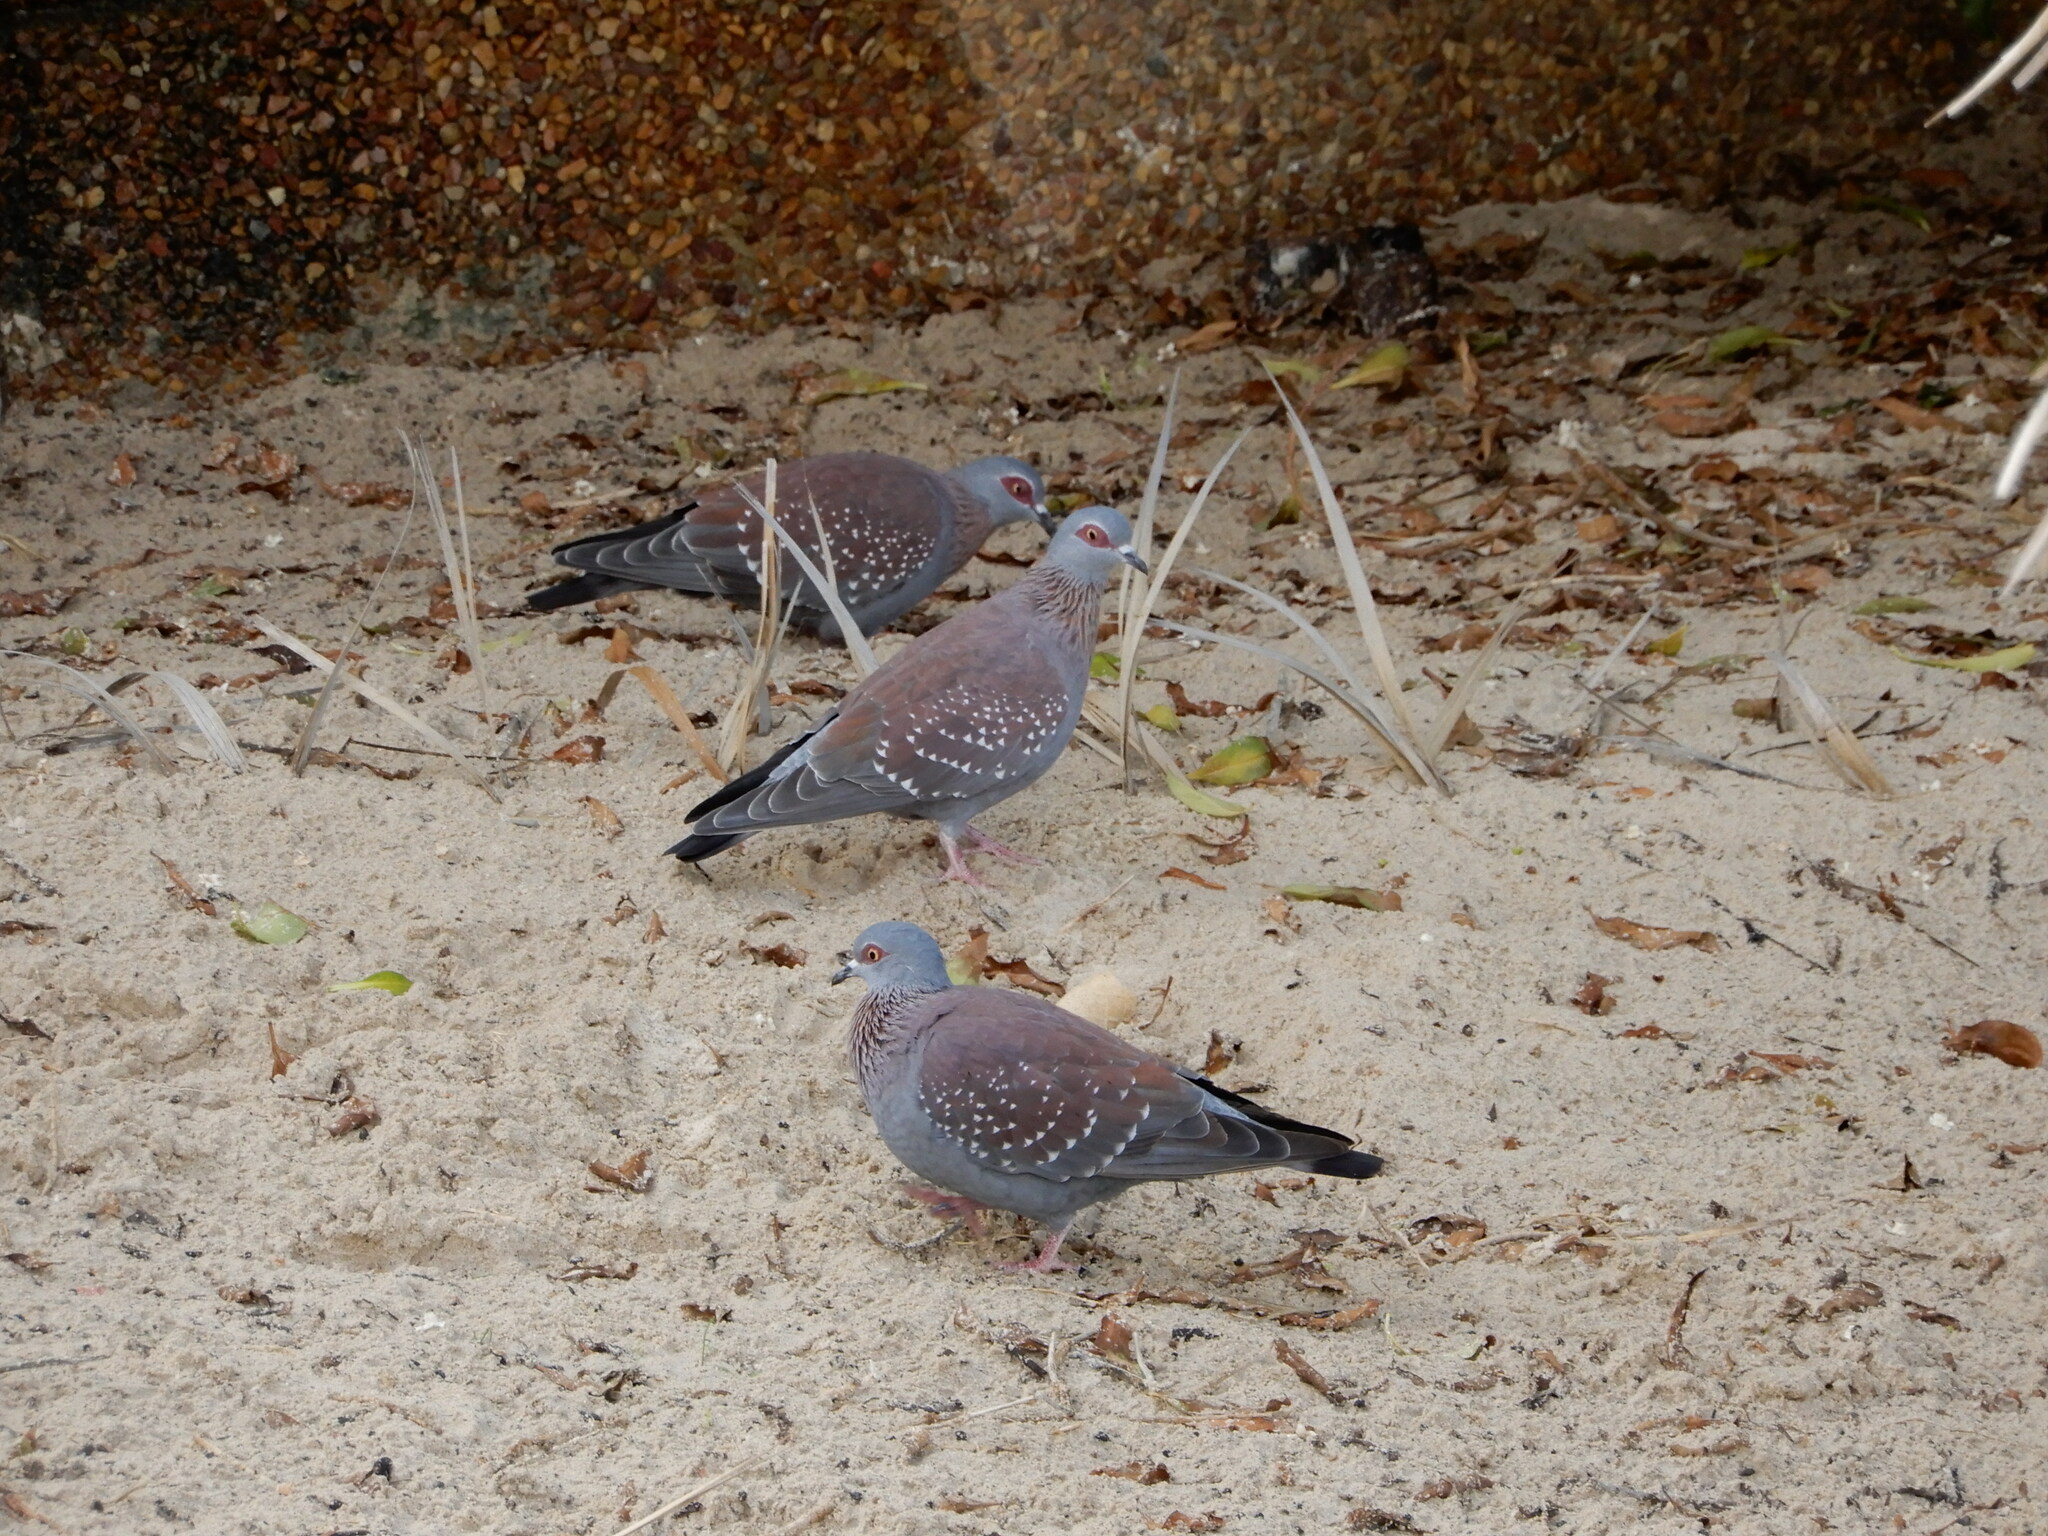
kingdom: Animalia
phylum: Chordata
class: Aves
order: Columbiformes
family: Columbidae
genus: Columba
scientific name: Columba guinea
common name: Speckled pigeon
